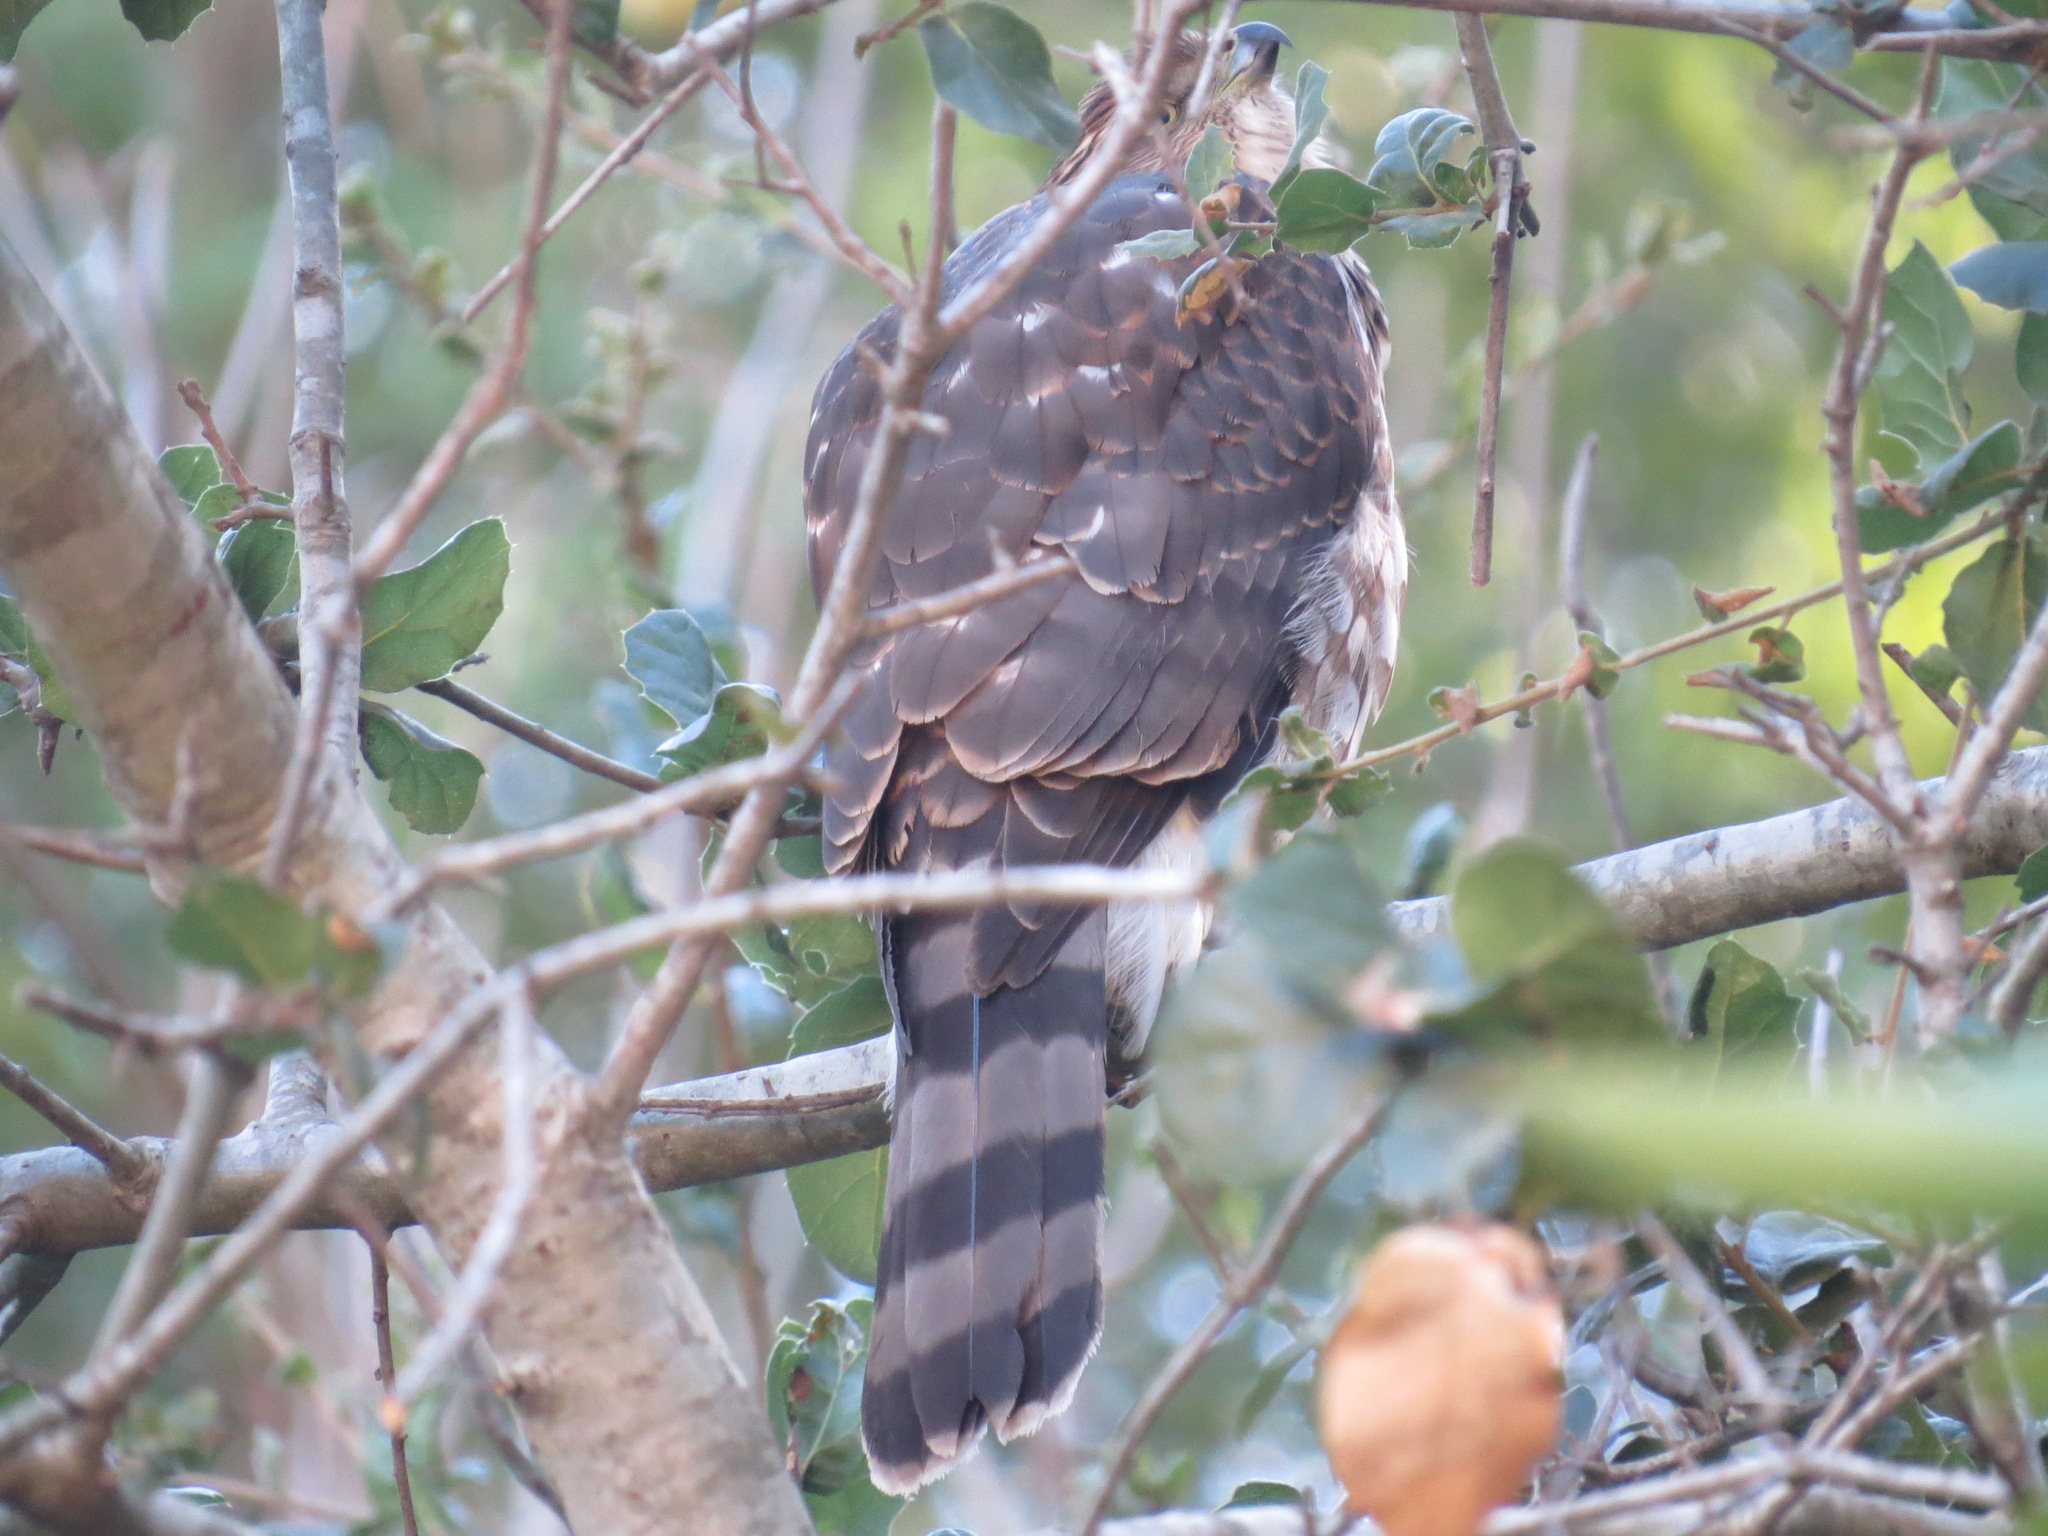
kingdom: Animalia
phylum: Chordata
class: Aves
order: Accipitriformes
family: Accipitridae
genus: Accipiter
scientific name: Accipiter cooperii
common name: Cooper's hawk
